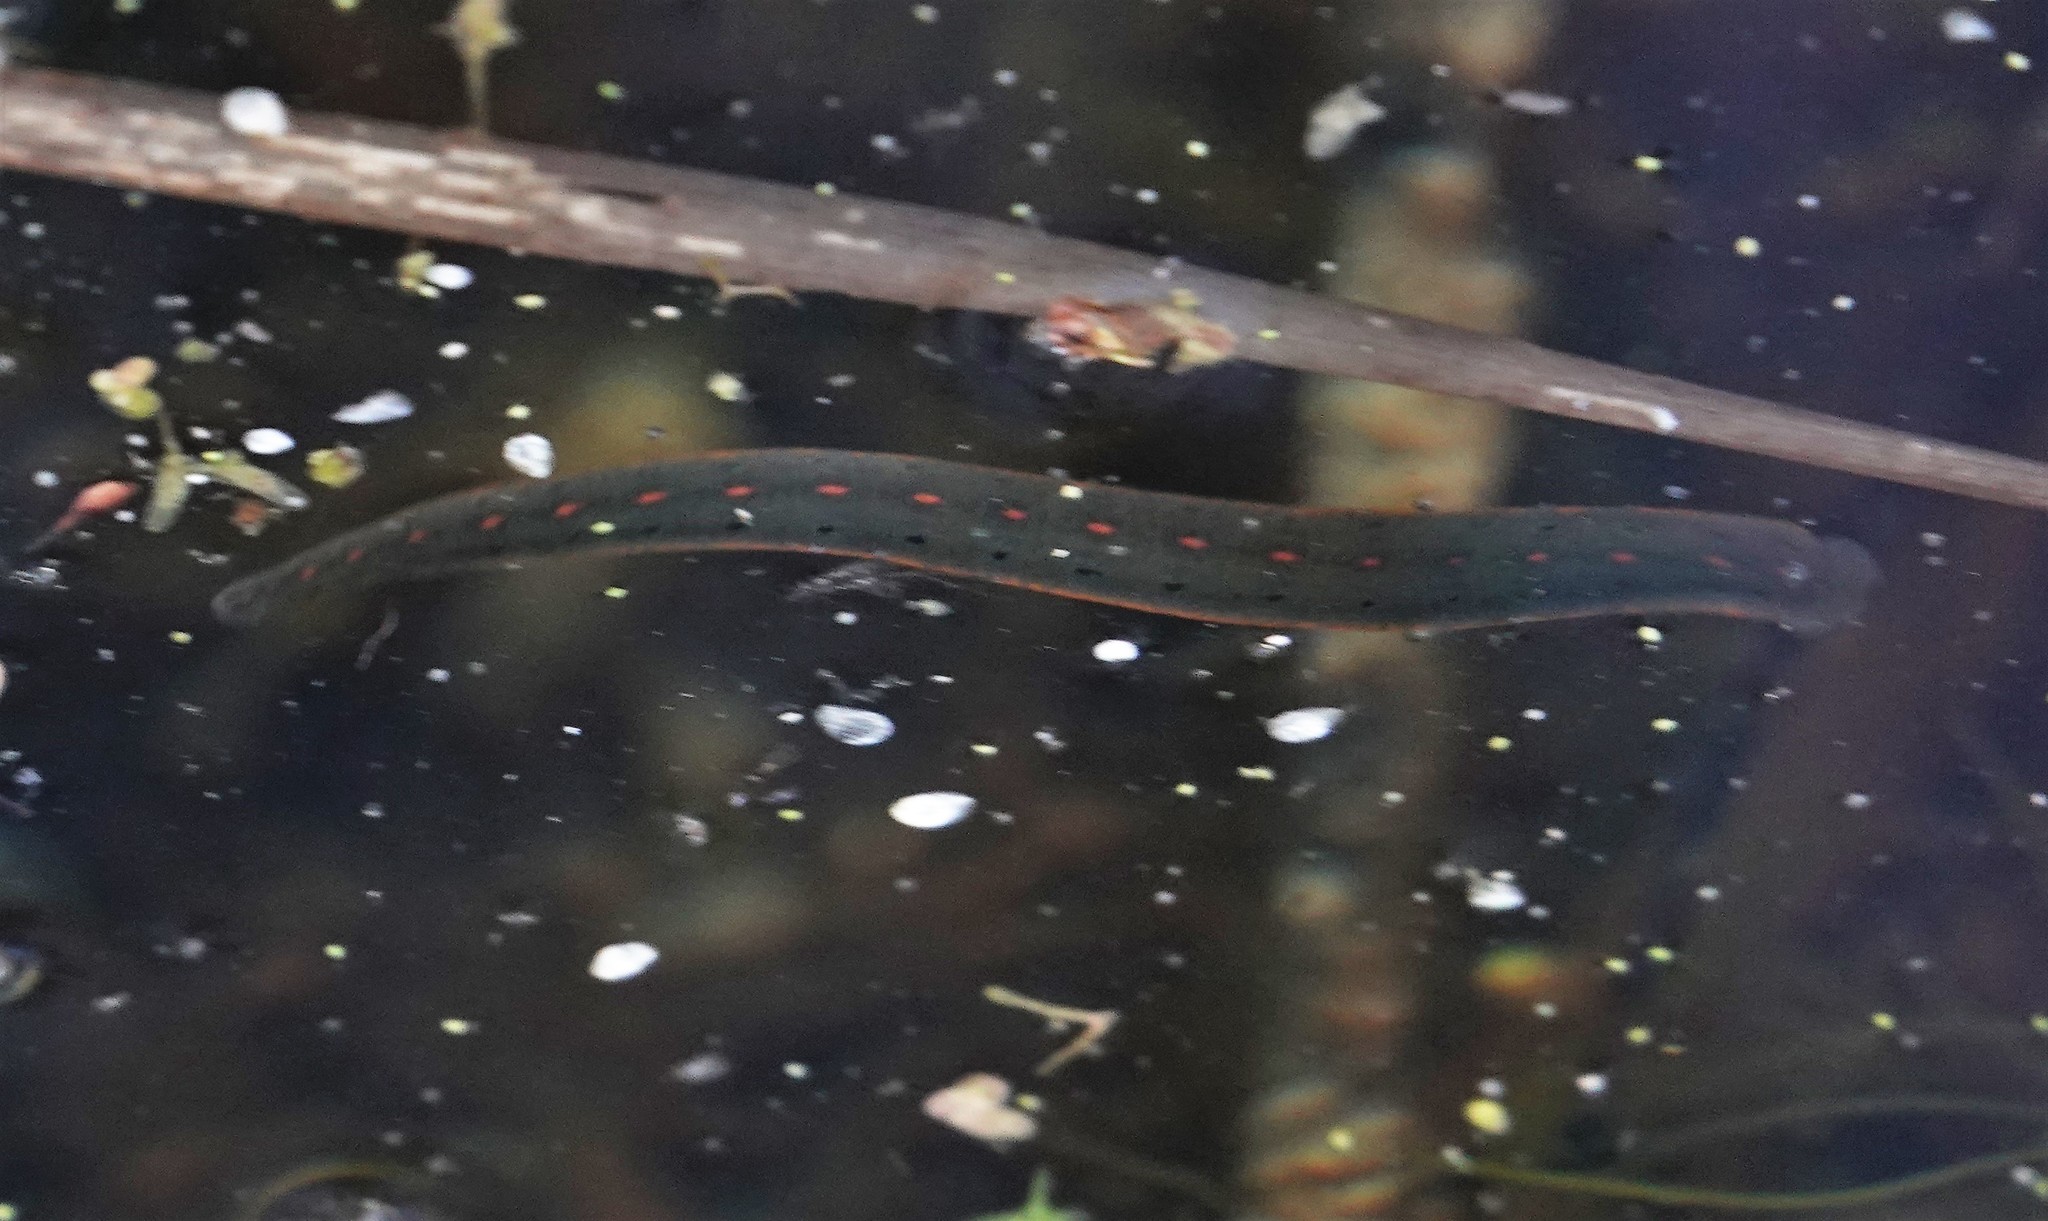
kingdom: Animalia
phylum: Annelida
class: Clitellata
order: Arhynchobdellida
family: Hirudinidae
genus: Macrobdella
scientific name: Macrobdella decora
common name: North american leech
